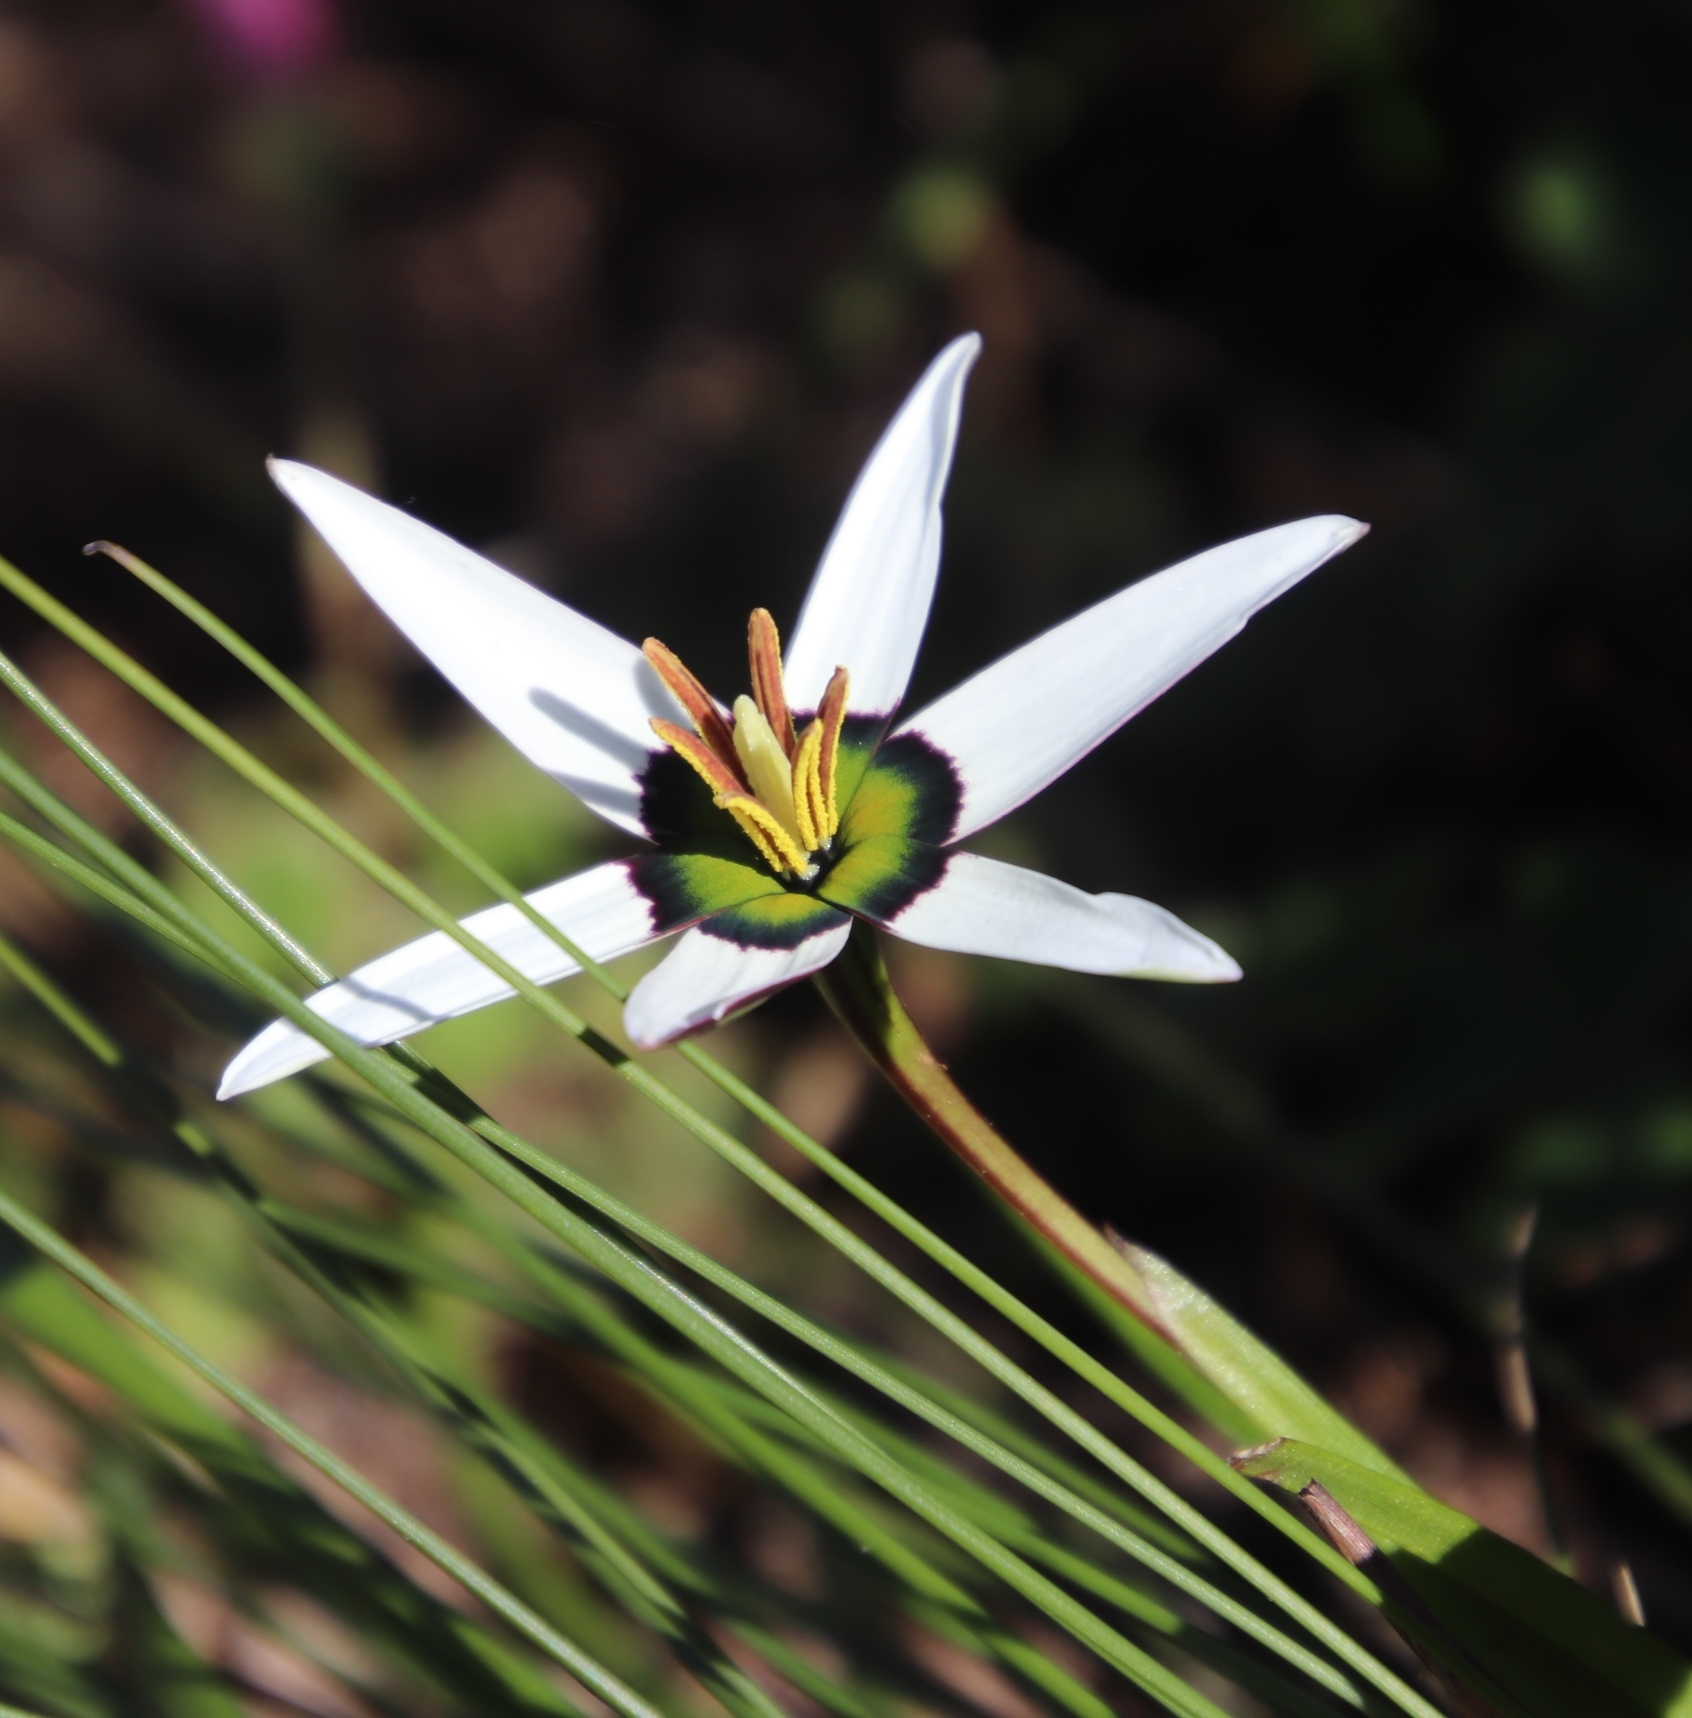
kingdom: Plantae
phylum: Tracheophyta
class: Liliopsida
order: Asparagales
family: Hypoxidaceae
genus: Pauridia
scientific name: Pauridia capensis
